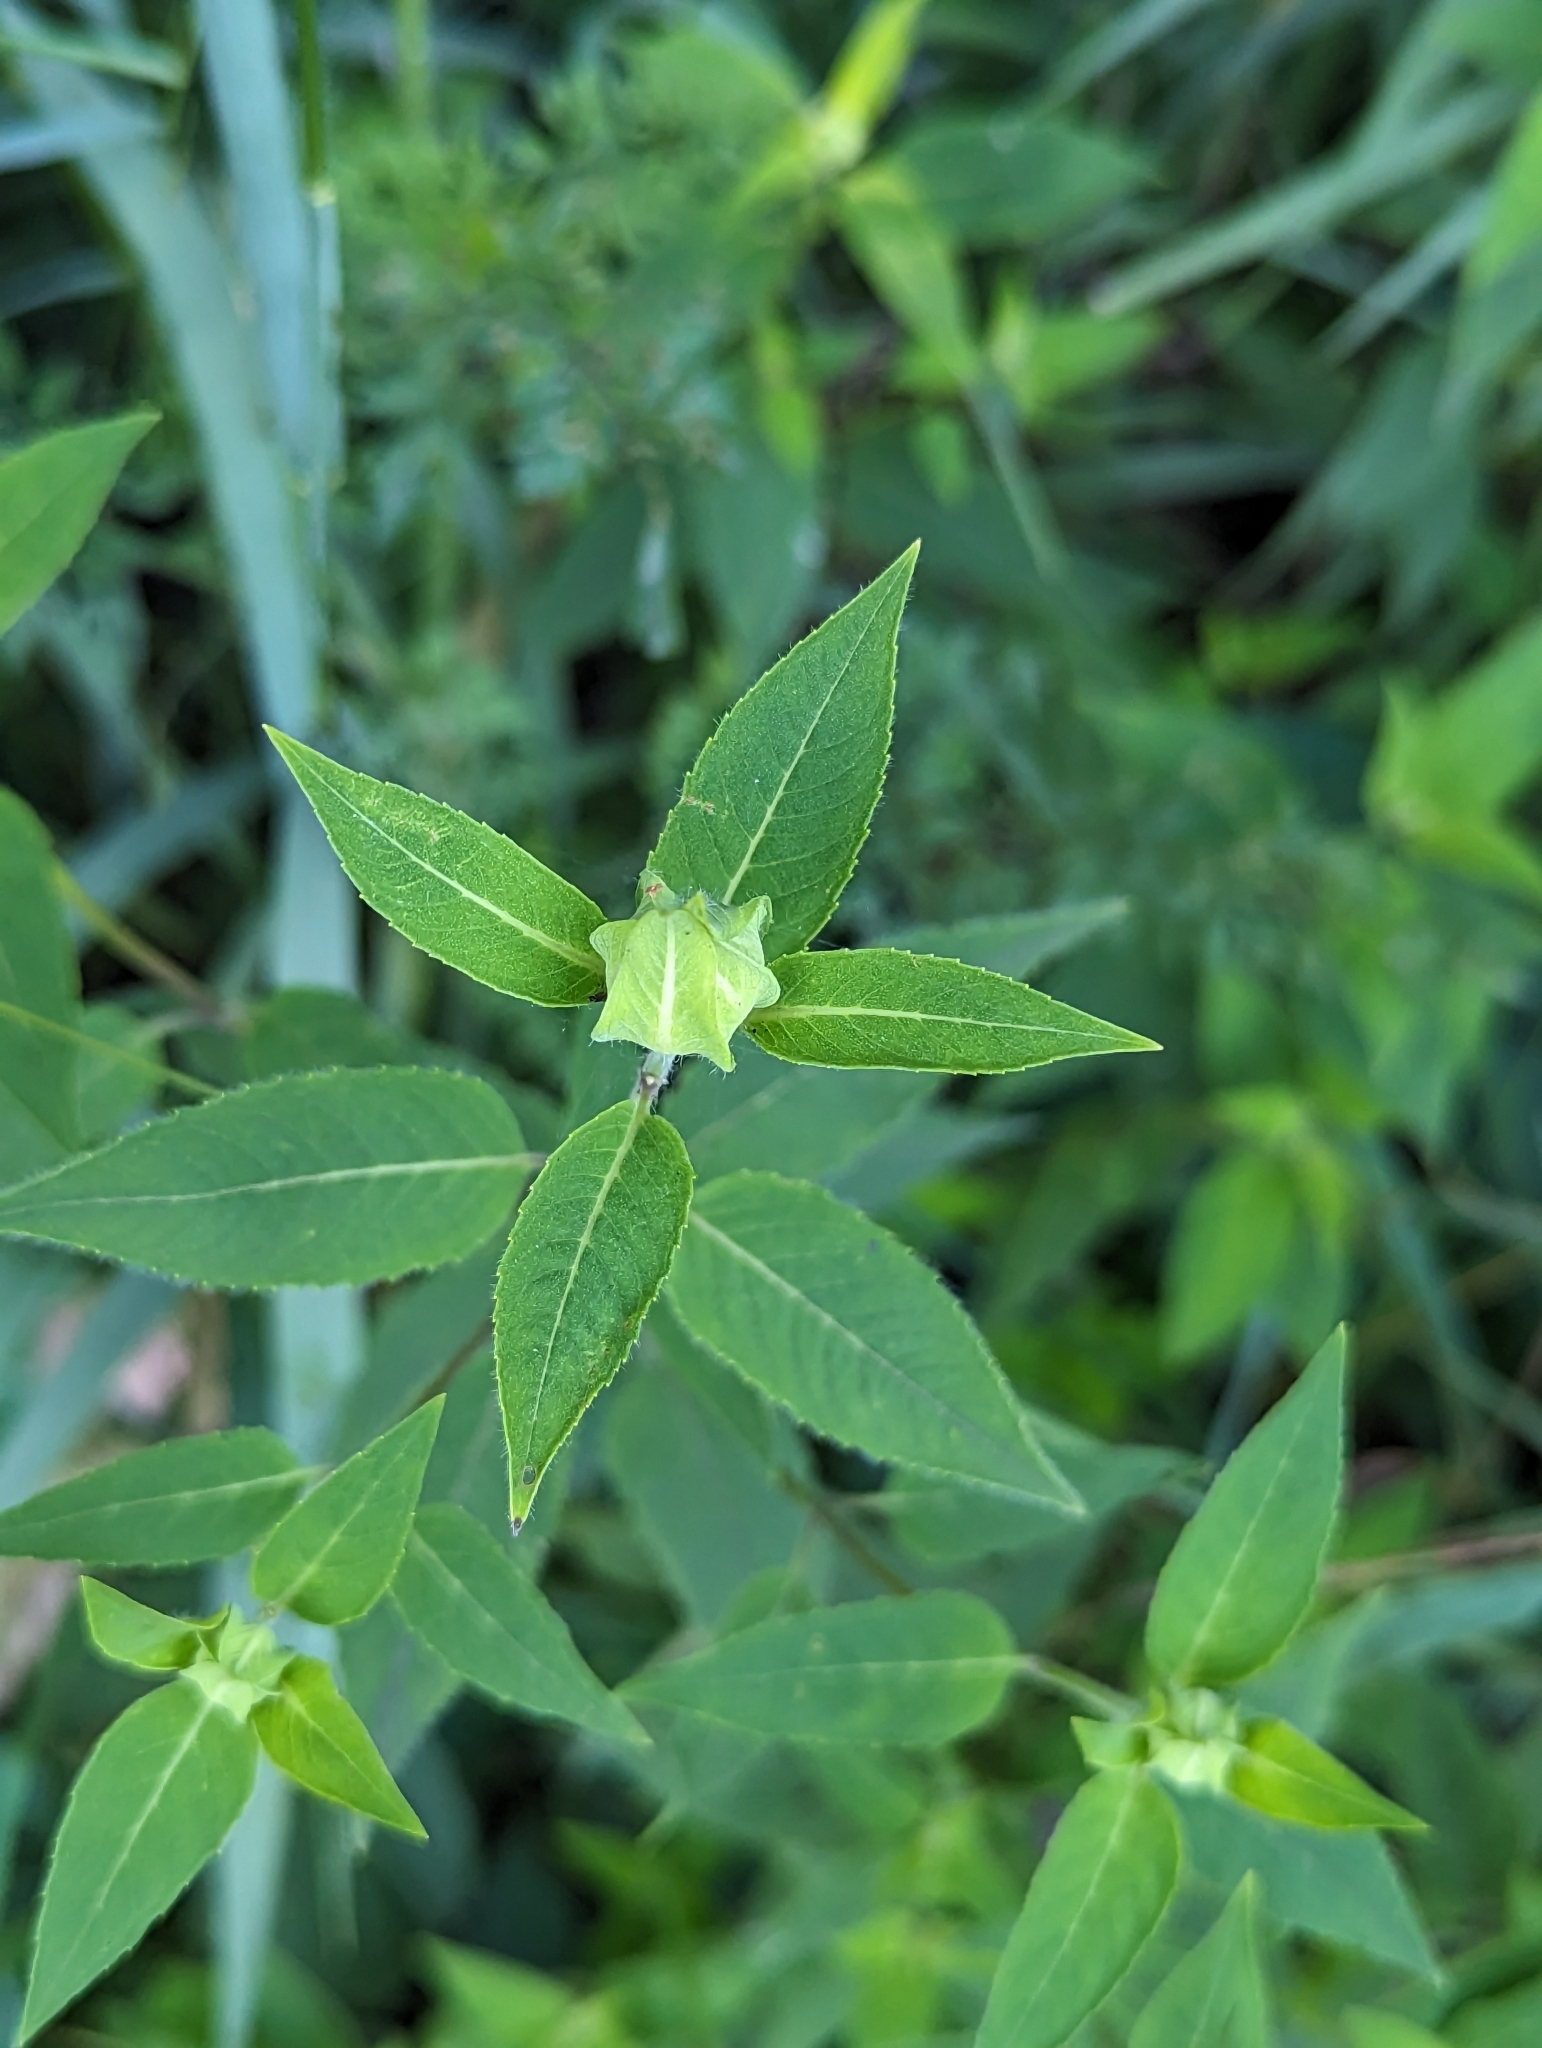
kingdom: Plantae
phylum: Tracheophyta
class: Magnoliopsida
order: Lamiales
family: Lamiaceae
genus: Monarda
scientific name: Monarda fistulosa
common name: Purple beebalm
